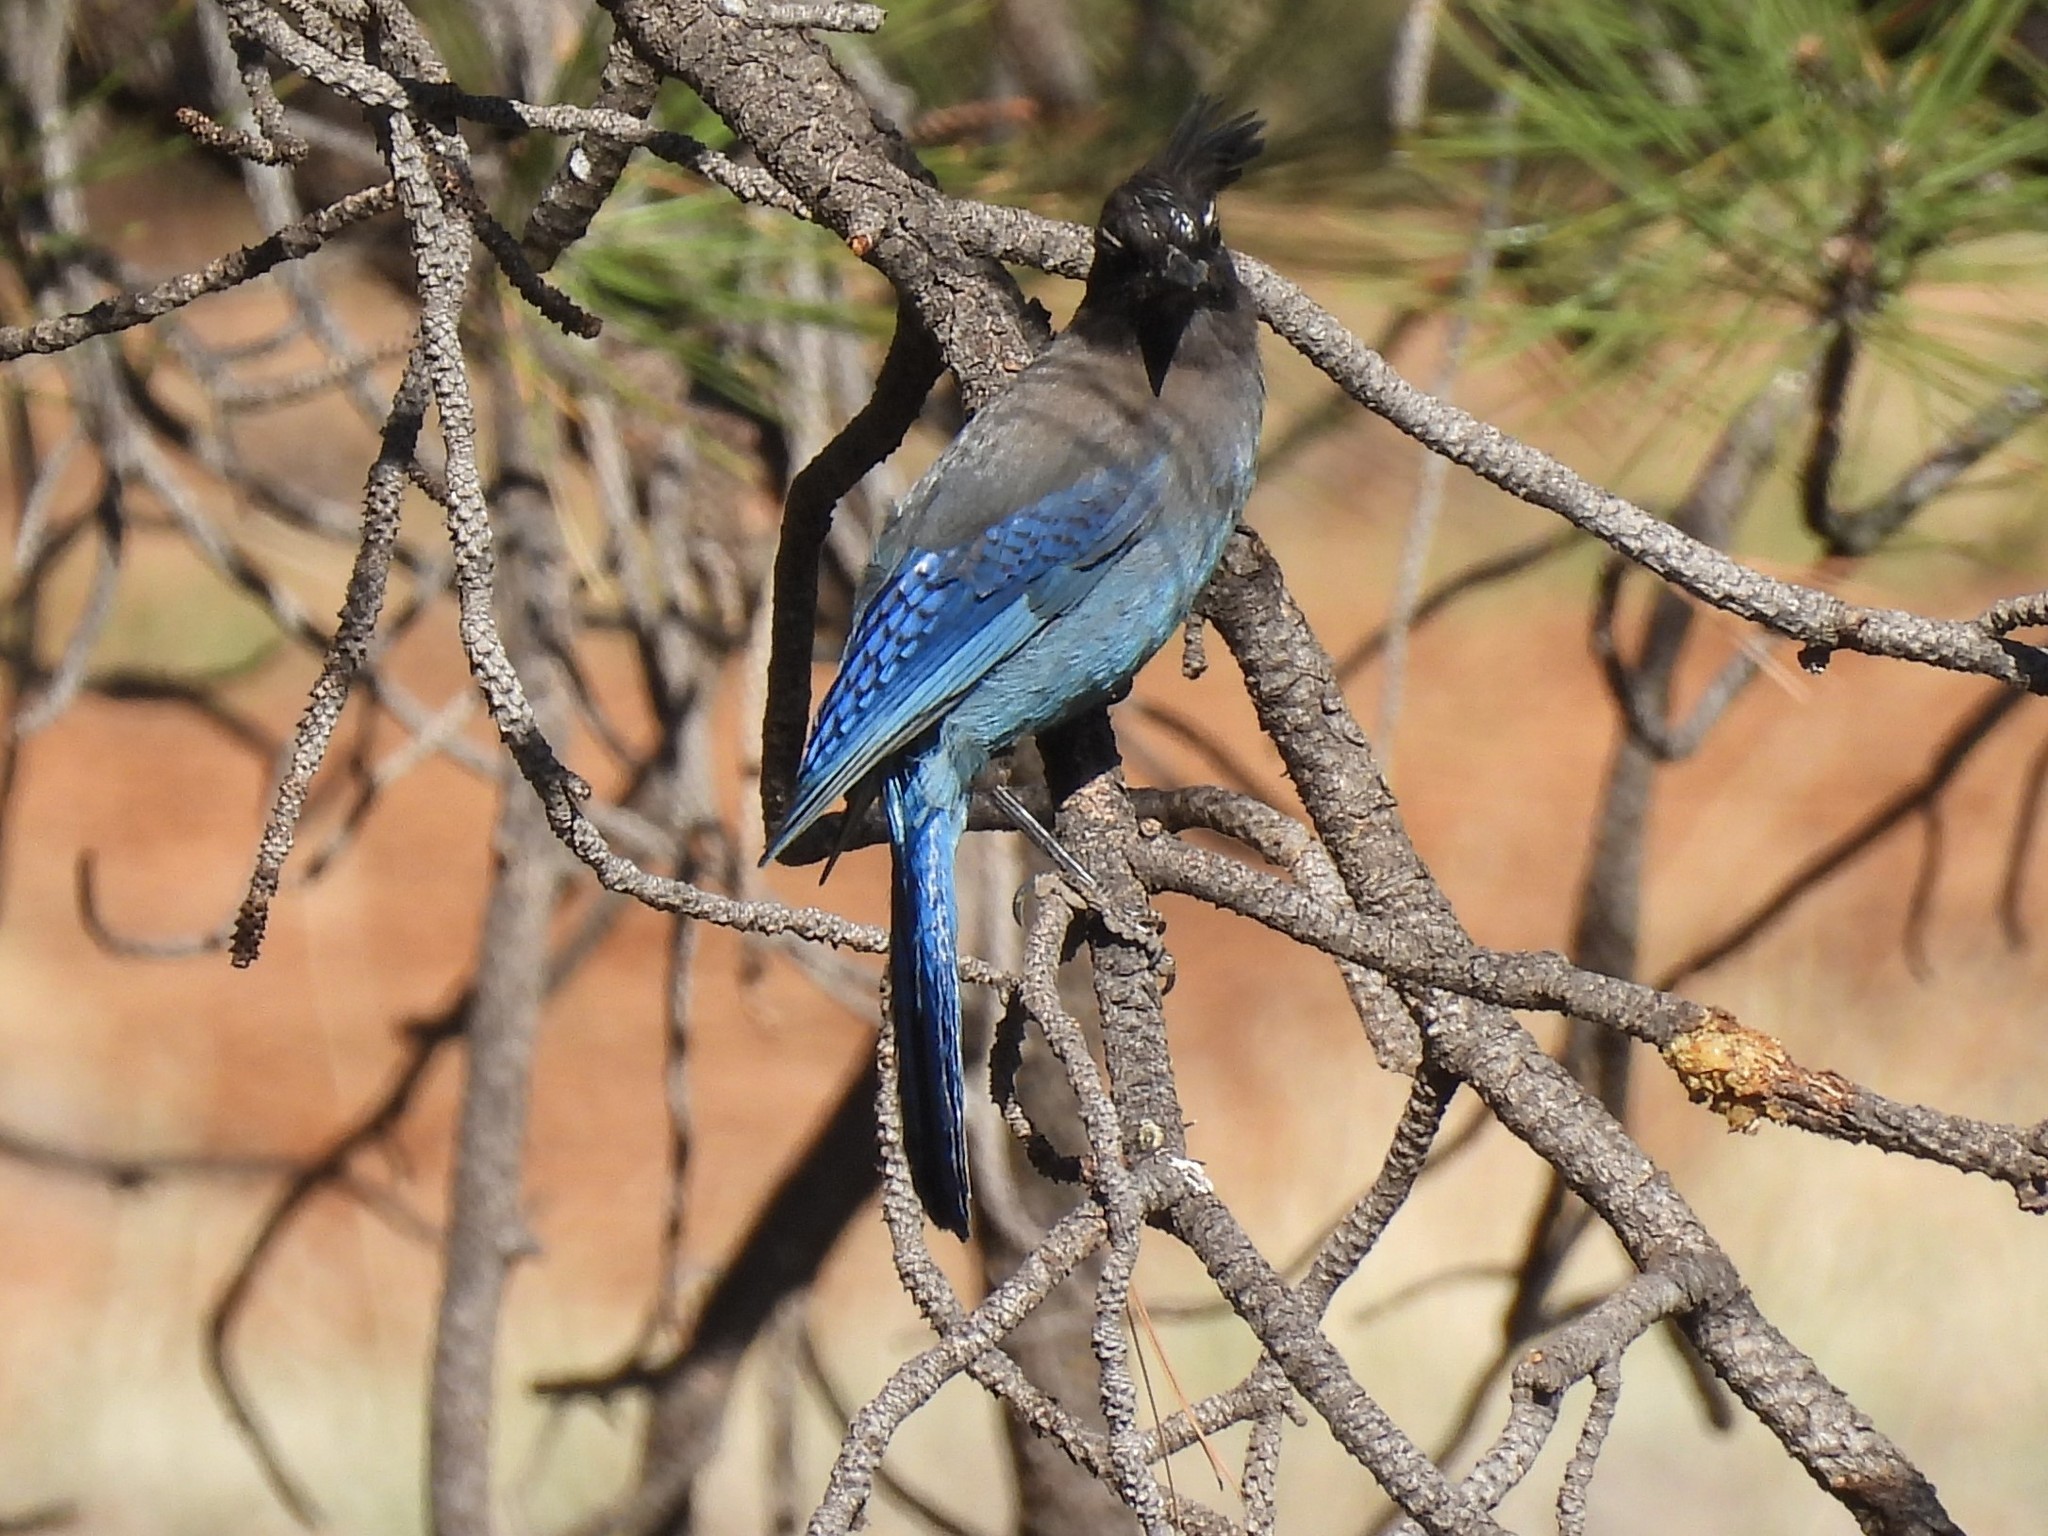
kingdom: Animalia
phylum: Chordata
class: Aves
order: Passeriformes
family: Corvidae
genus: Cyanocitta
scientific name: Cyanocitta stelleri
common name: Steller's jay
